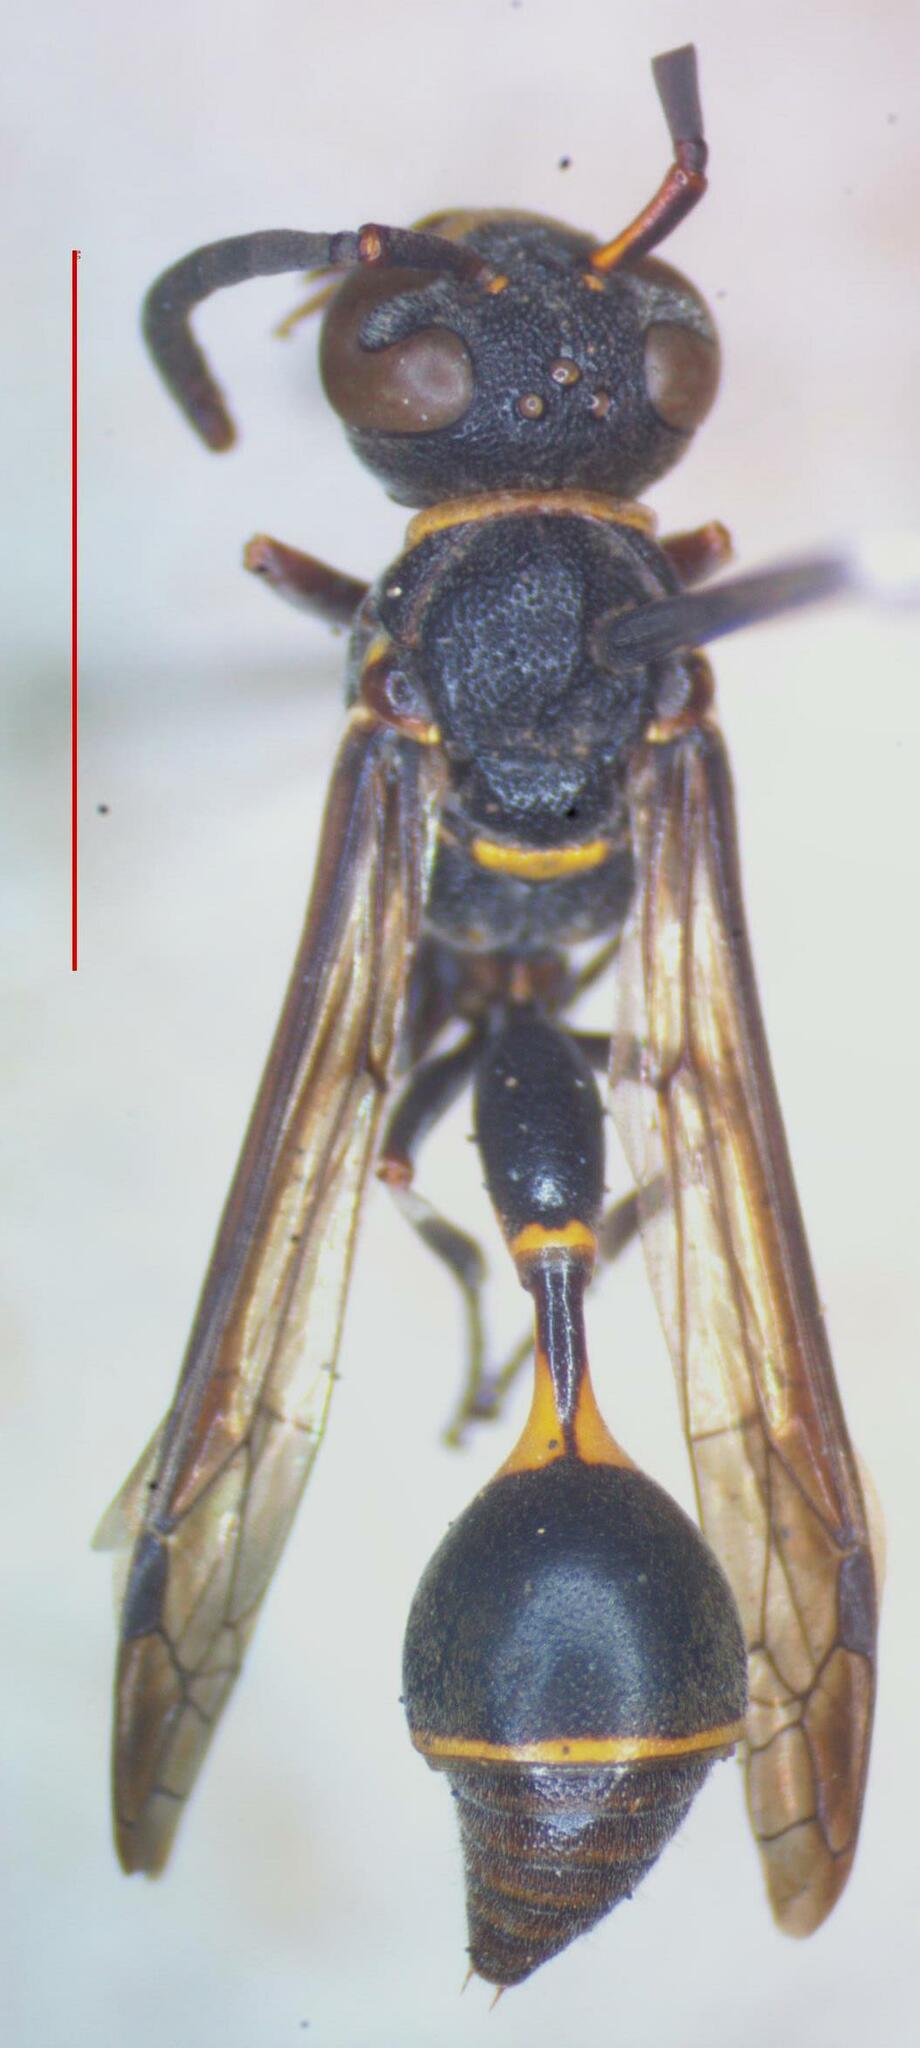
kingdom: Animalia
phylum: Arthropoda
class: Insecta
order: Hymenoptera
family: Eumenidae
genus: Zethus
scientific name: Zethus dicomboda
